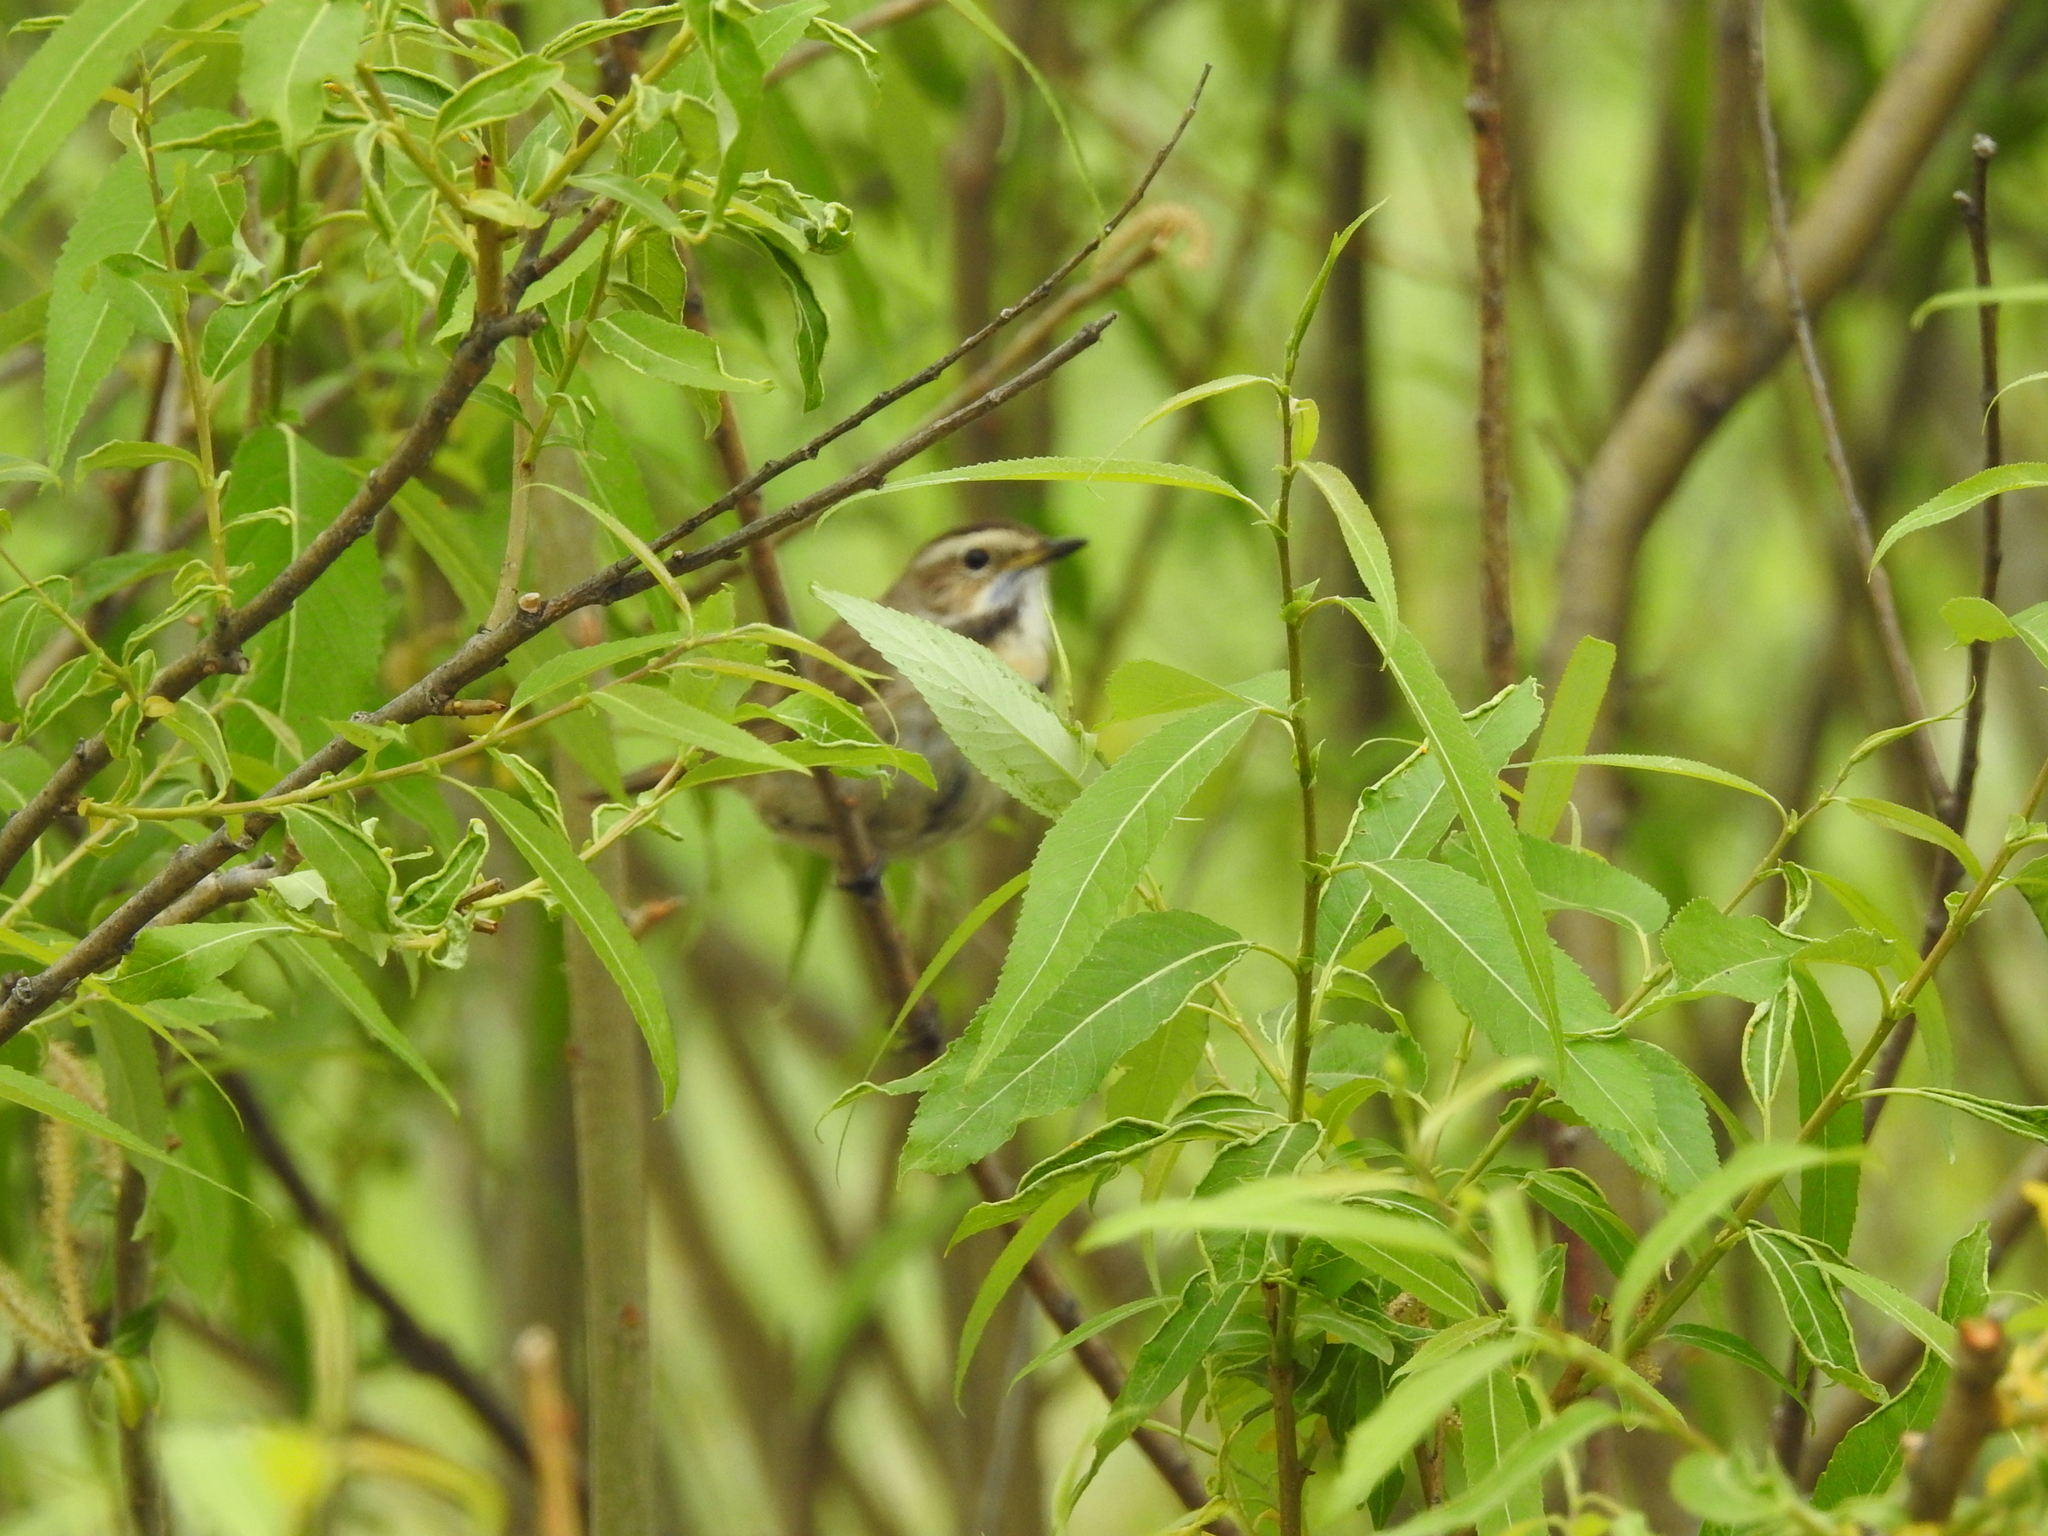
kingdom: Animalia
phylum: Chordata
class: Aves
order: Passeriformes
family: Muscicapidae
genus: Luscinia
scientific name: Luscinia svecica
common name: Bluethroat
